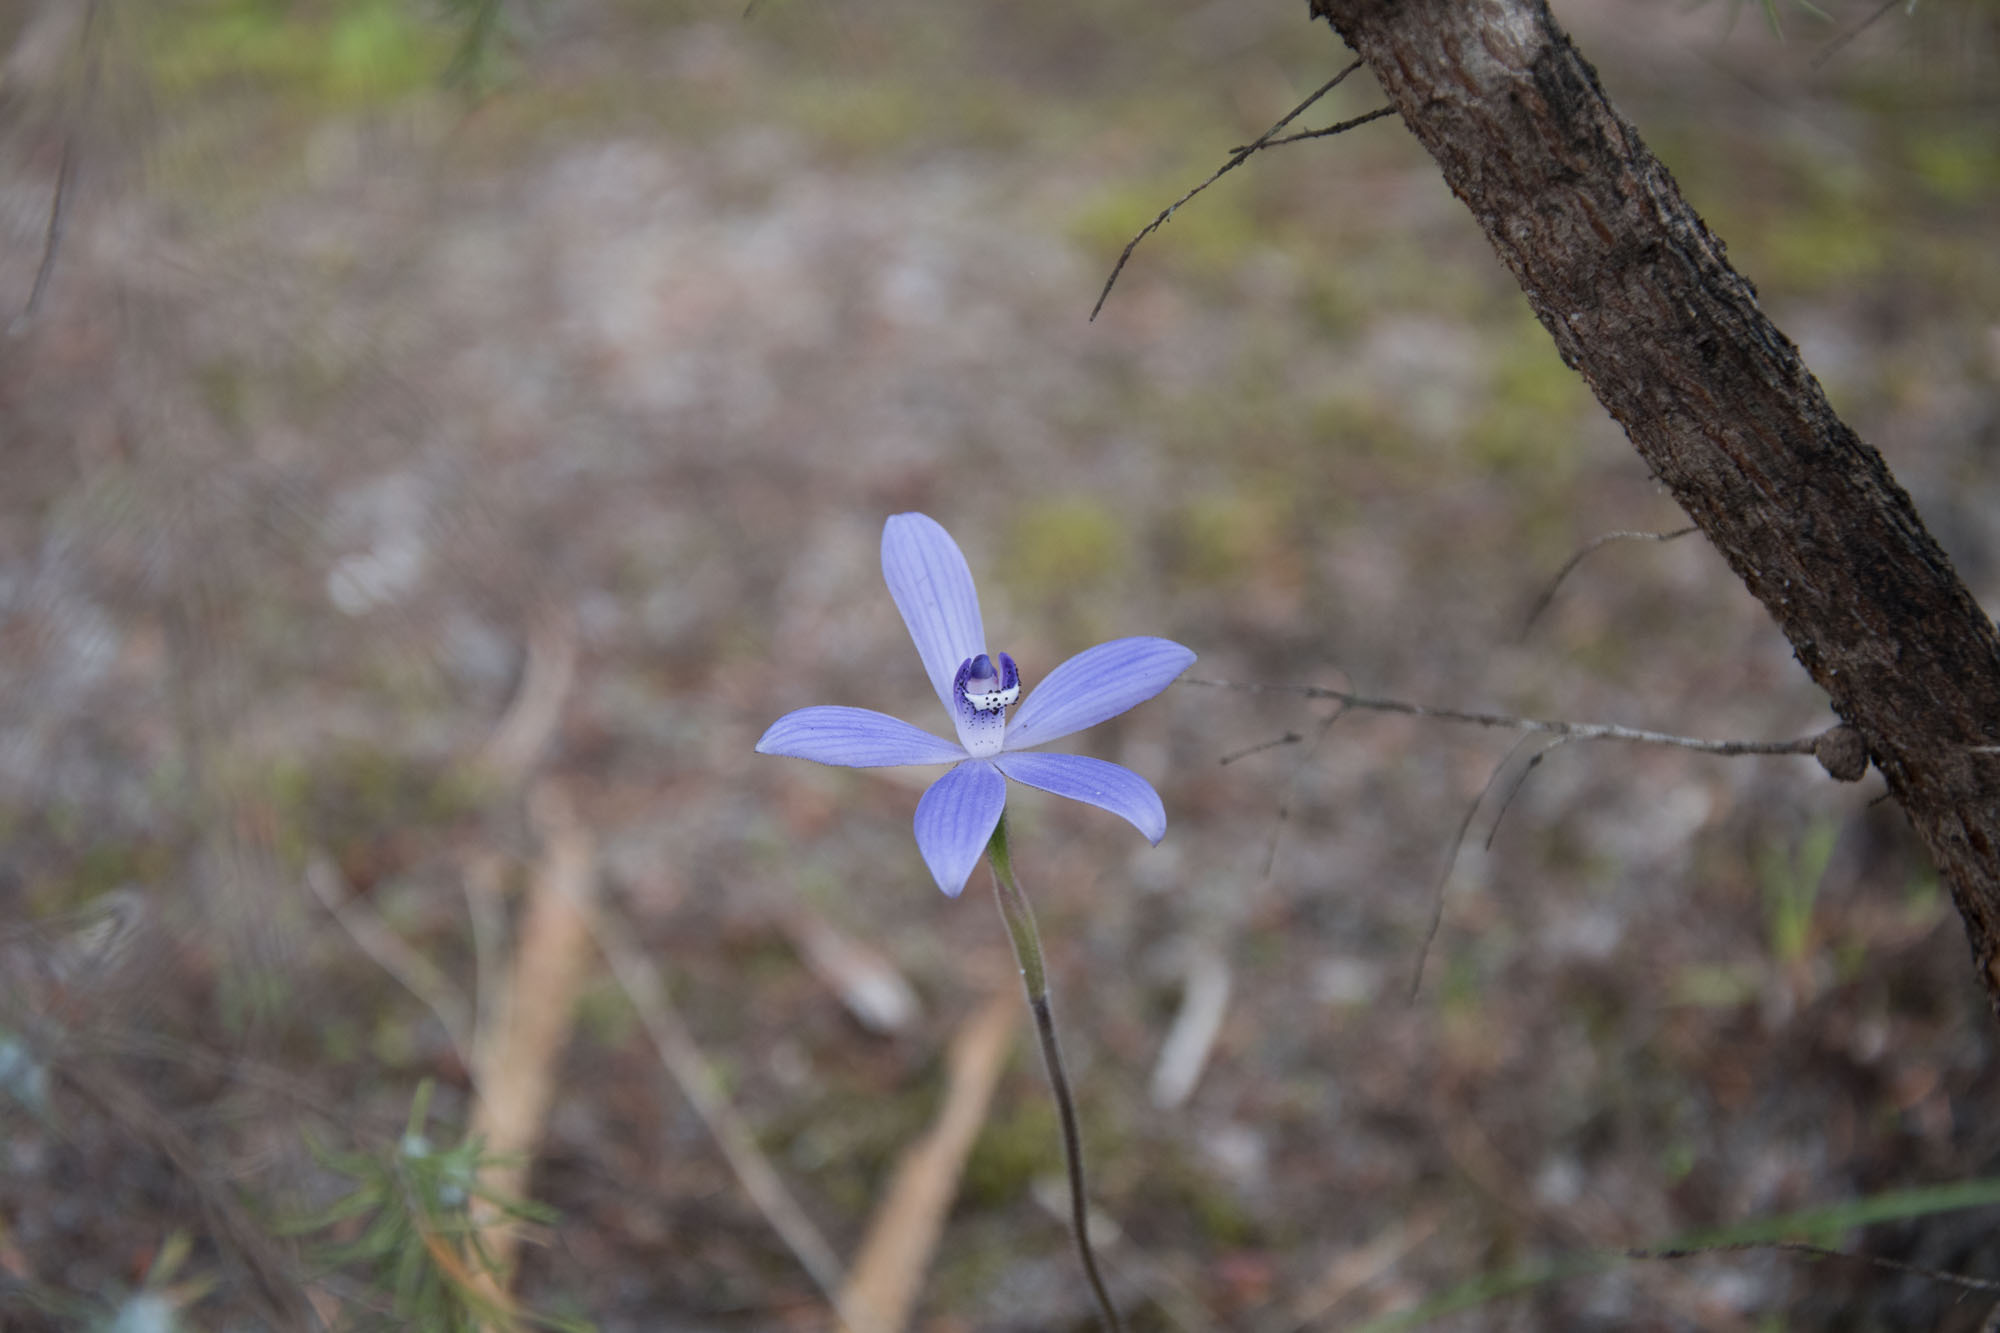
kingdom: Plantae
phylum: Tracheophyta
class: Liliopsida
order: Asparagales
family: Orchidaceae
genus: Caladenia
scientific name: Caladenia sericea
